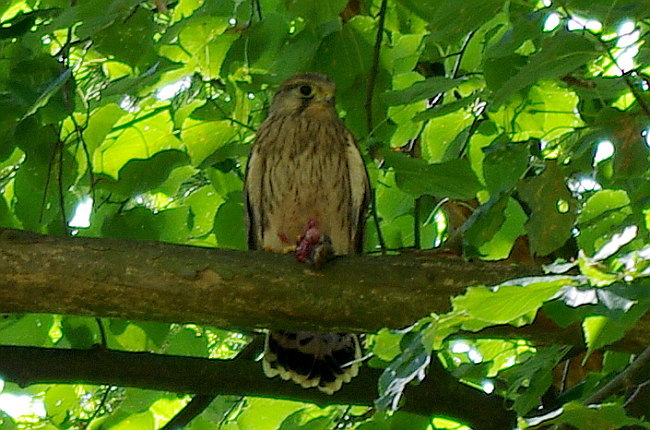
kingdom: Animalia
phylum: Chordata
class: Aves
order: Falconiformes
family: Falconidae
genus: Falco
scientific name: Falco tinnunculus
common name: Common kestrel
